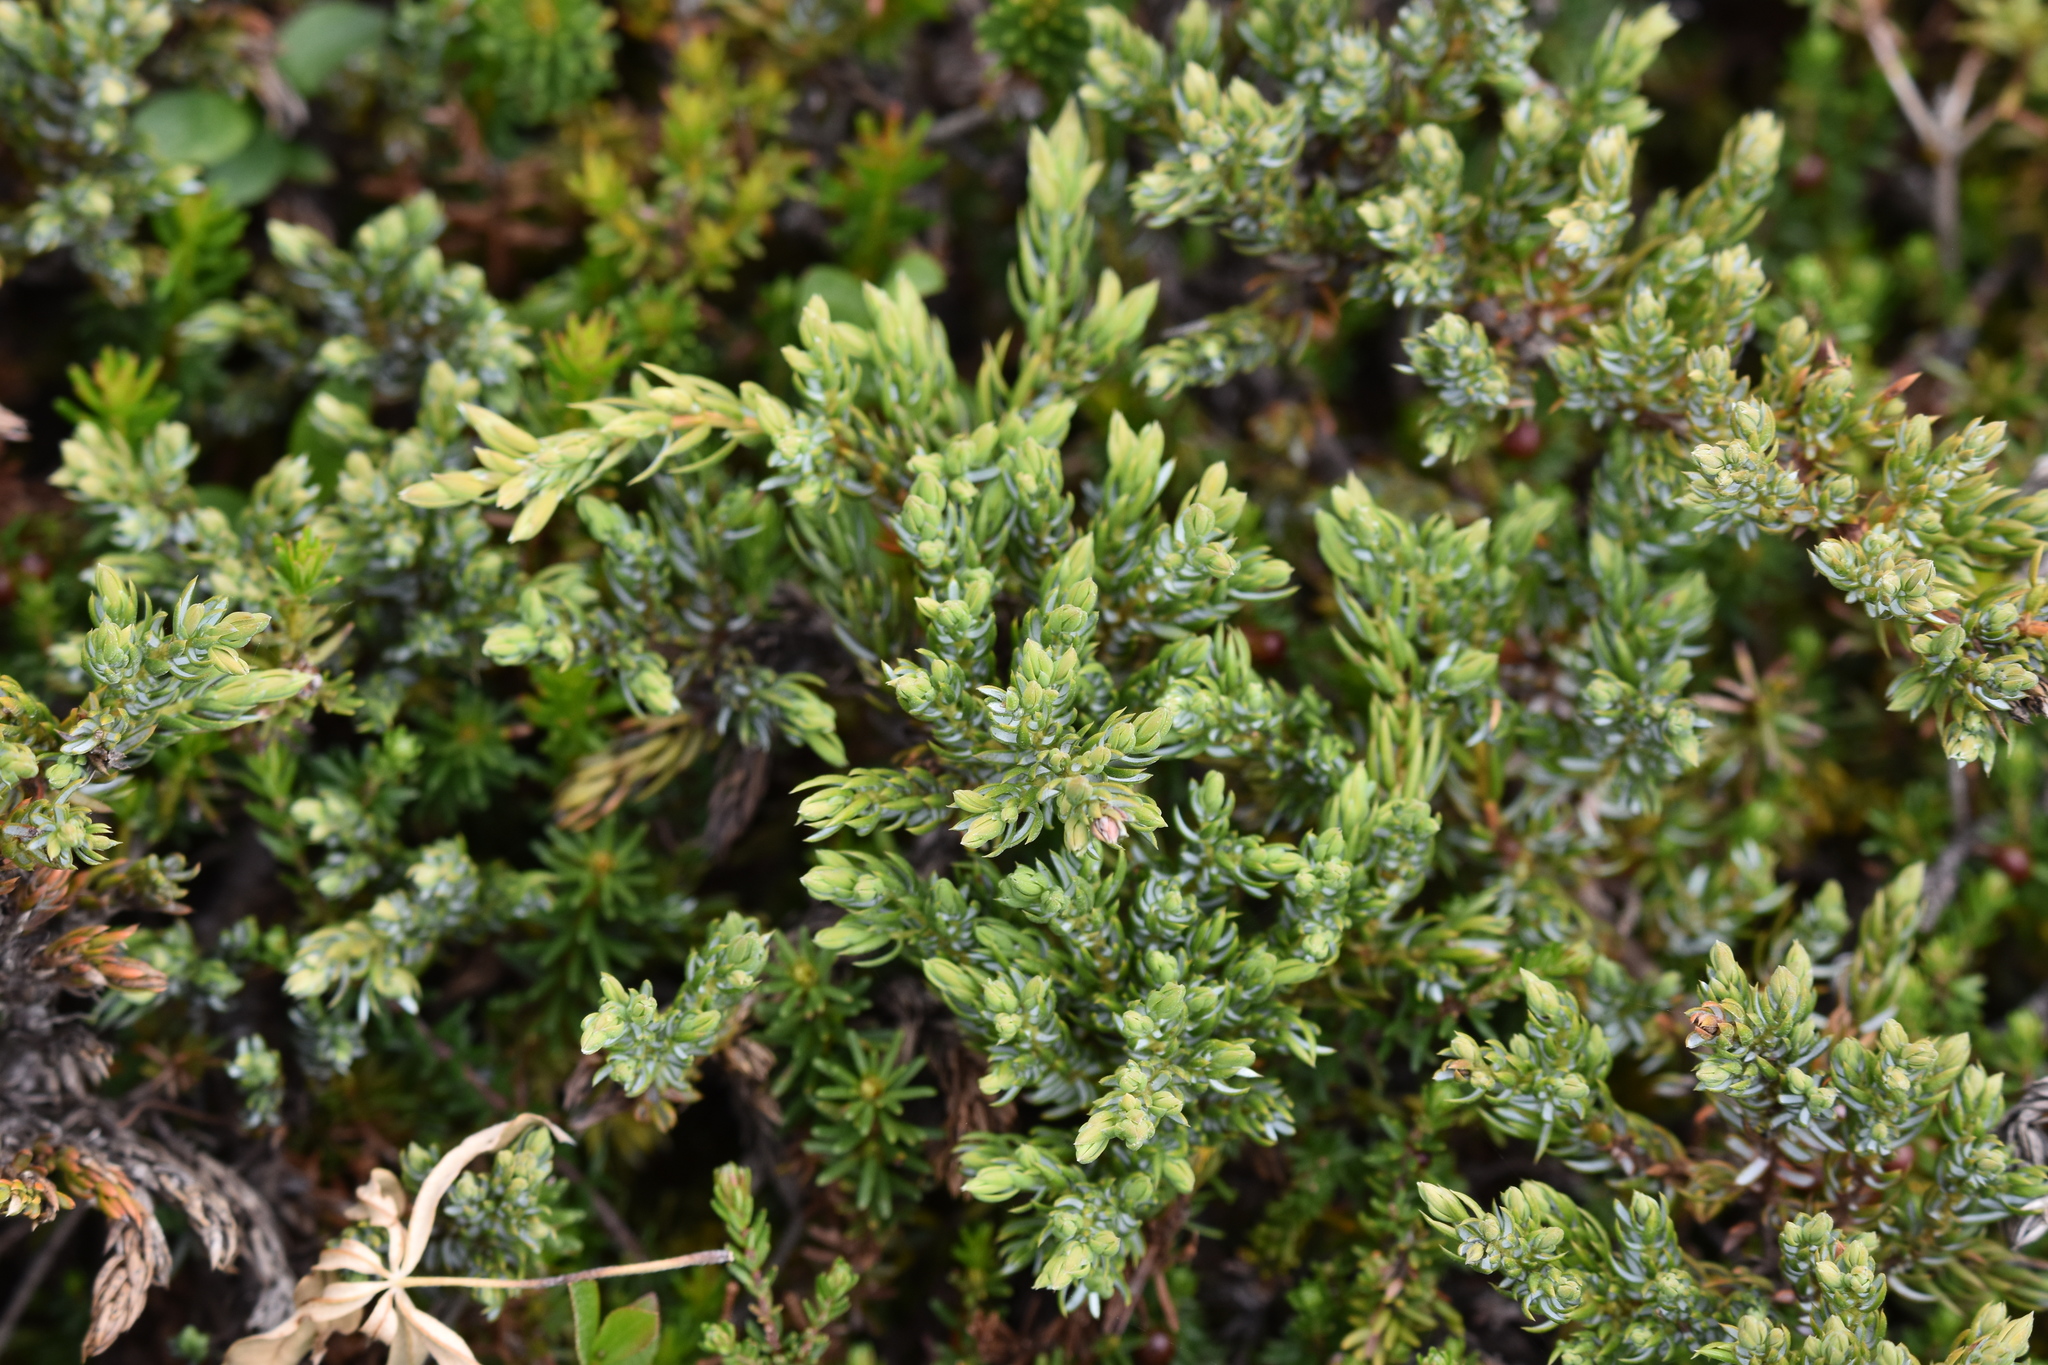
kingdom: Plantae
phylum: Tracheophyta
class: Pinopsida
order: Pinales
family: Cupressaceae
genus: Juniperus
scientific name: Juniperus communis
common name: Common juniper
